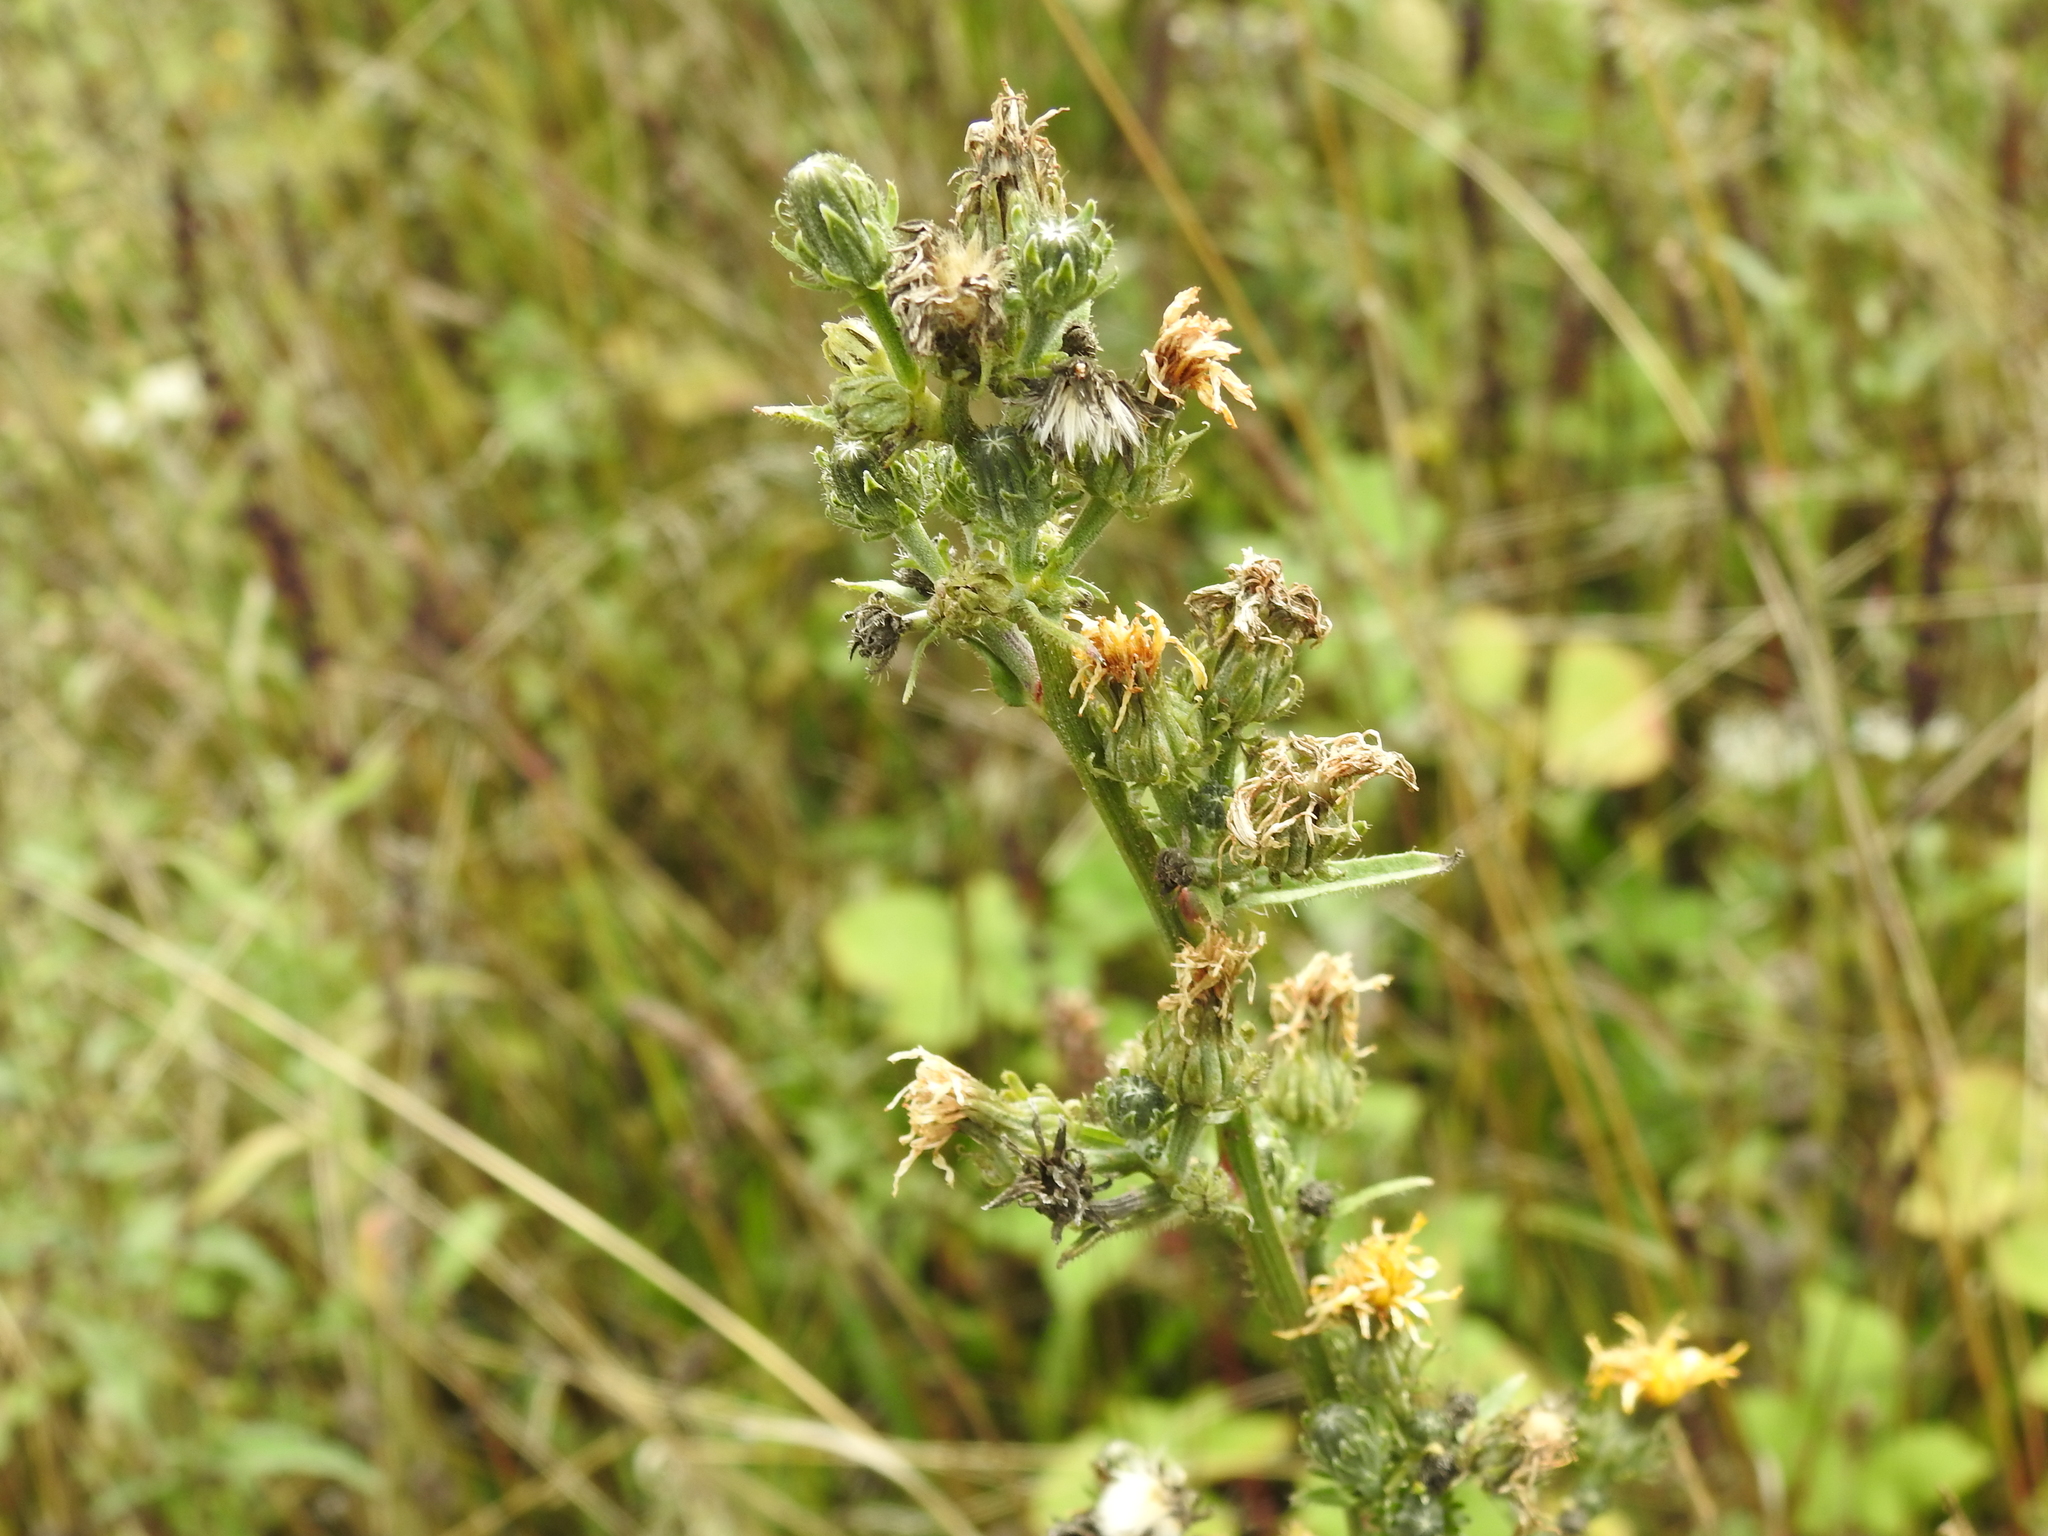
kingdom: Plantae
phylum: Tracheophyta
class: Magnoliopsida
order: Asterales
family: Asteraceae
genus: Picris
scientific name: Picris hieracioides
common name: Hawkweed oxtongue
